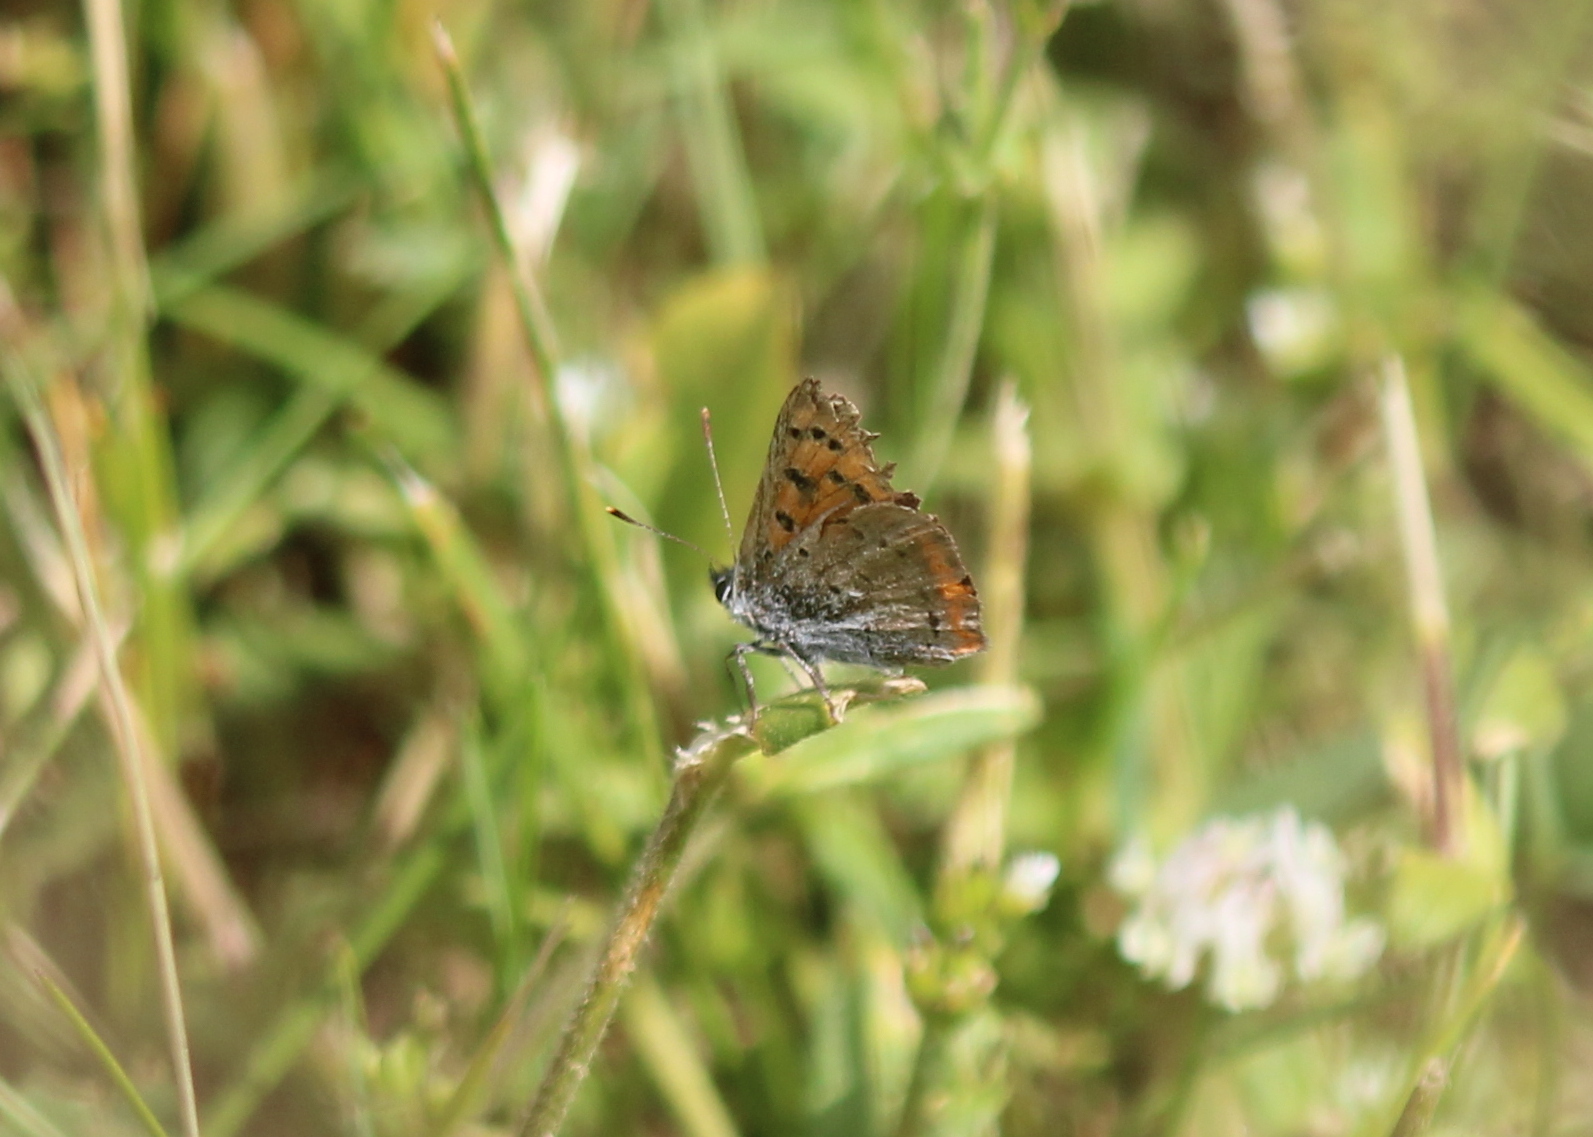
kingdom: Animalia
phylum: Arthropoda
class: Insecta
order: Lepidoptera
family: Lycaenidae
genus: Lycaena
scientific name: Lycaena hypophlaeas
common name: American copper
